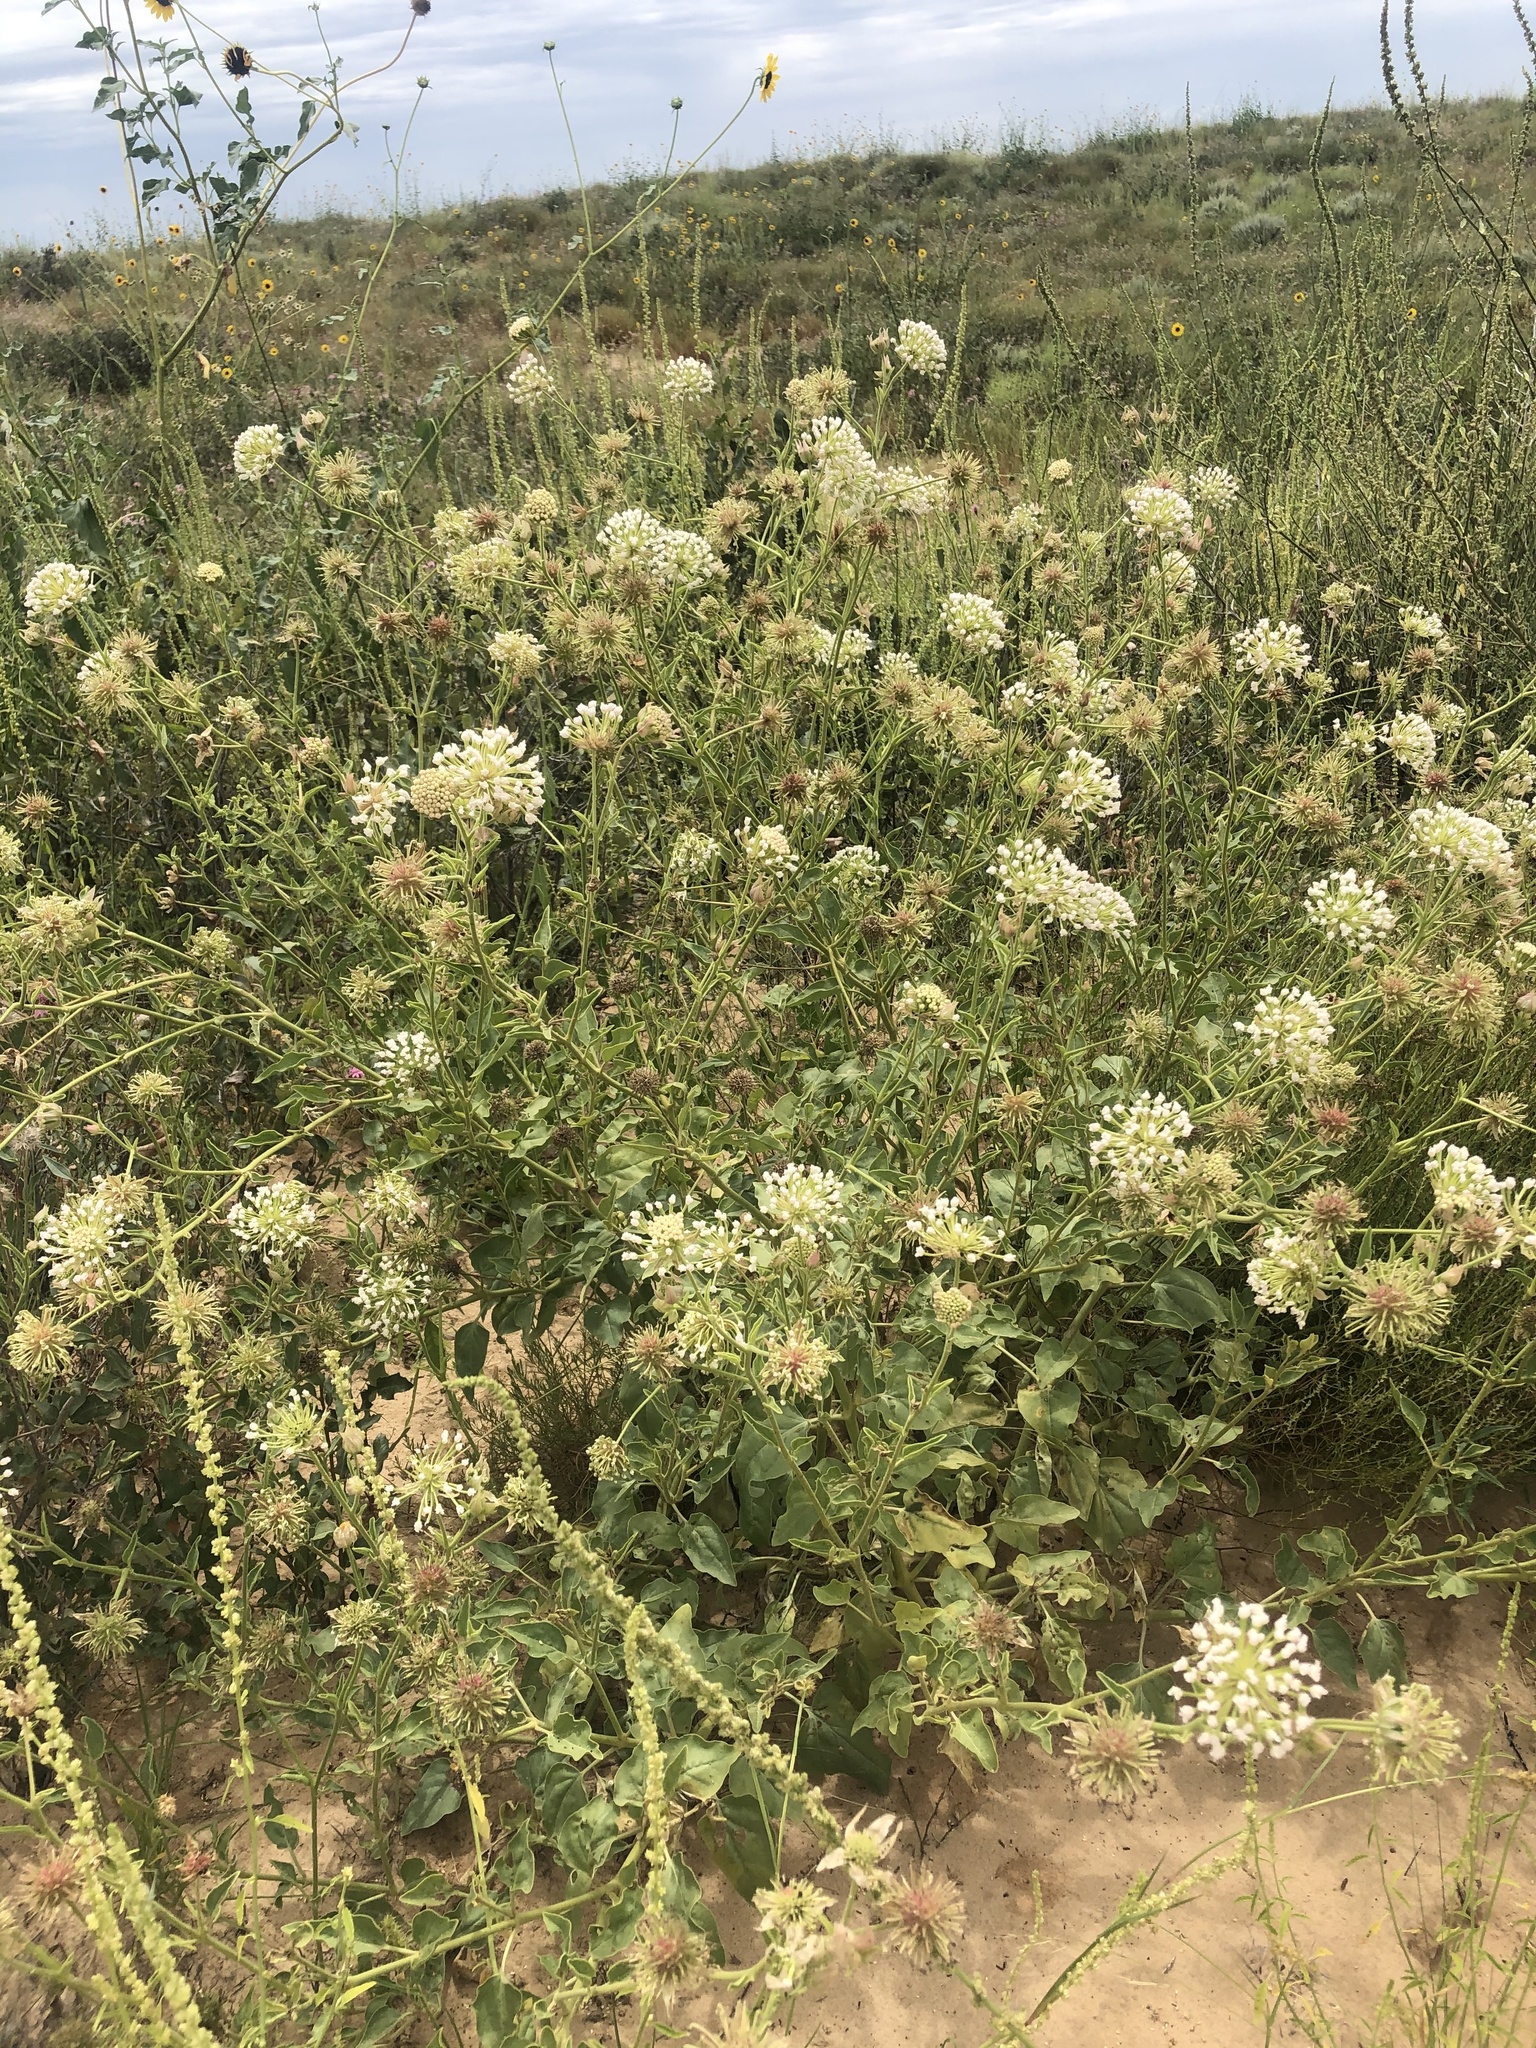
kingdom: Plantae
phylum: Tracheophyta
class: Magnoliopsida
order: Caryophyllales
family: Nyctaginaceae
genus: Abronia
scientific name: Abronia fragrans
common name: Fragrant sand-verbena
